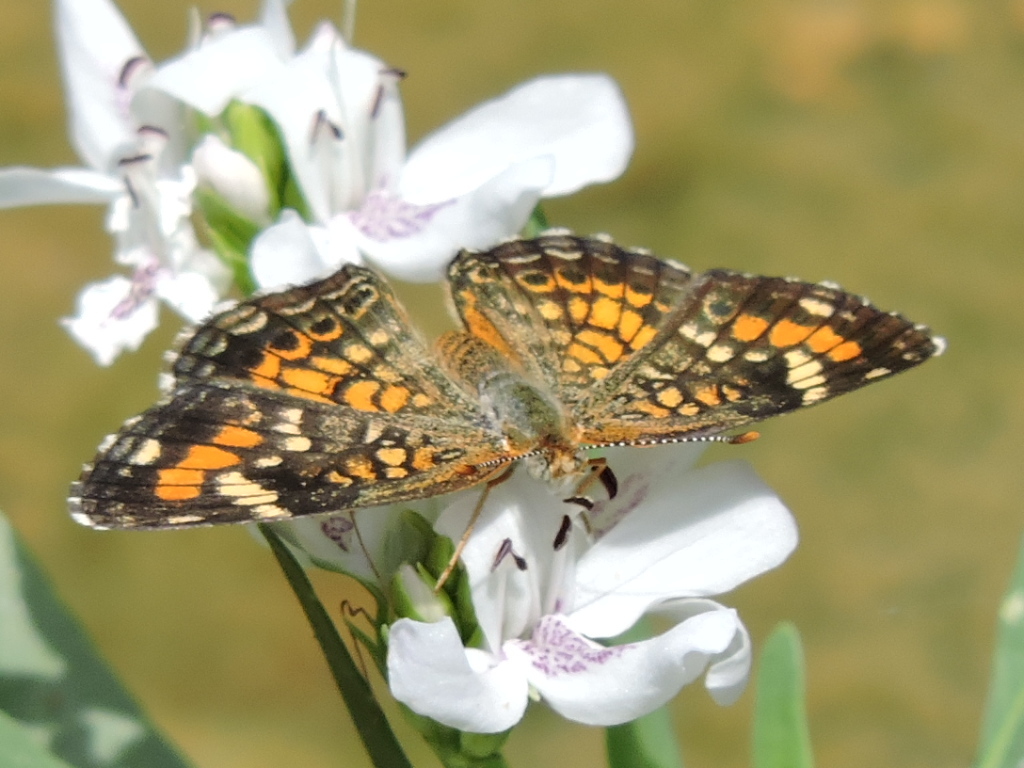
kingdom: Animalia
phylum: Arthropoda
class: Insecta
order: Lepidoptera
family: Nymphalidae
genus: Phyciodes
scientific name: Phyciodes phaon
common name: Phaon crescent
